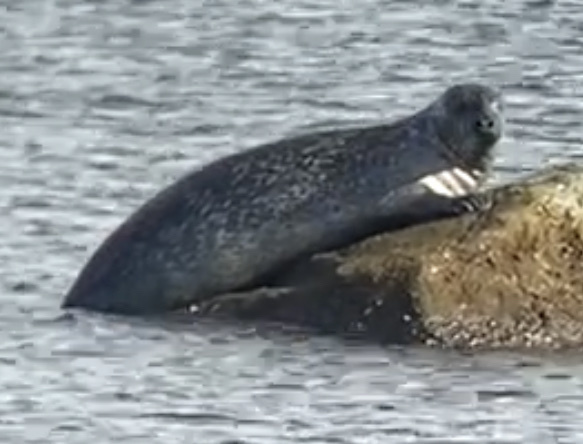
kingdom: Animalia
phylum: Chordata
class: Mammalia
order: Carnivora
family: Phocidae
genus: Phoca
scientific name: Phoca vitulina
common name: Harbor seal
